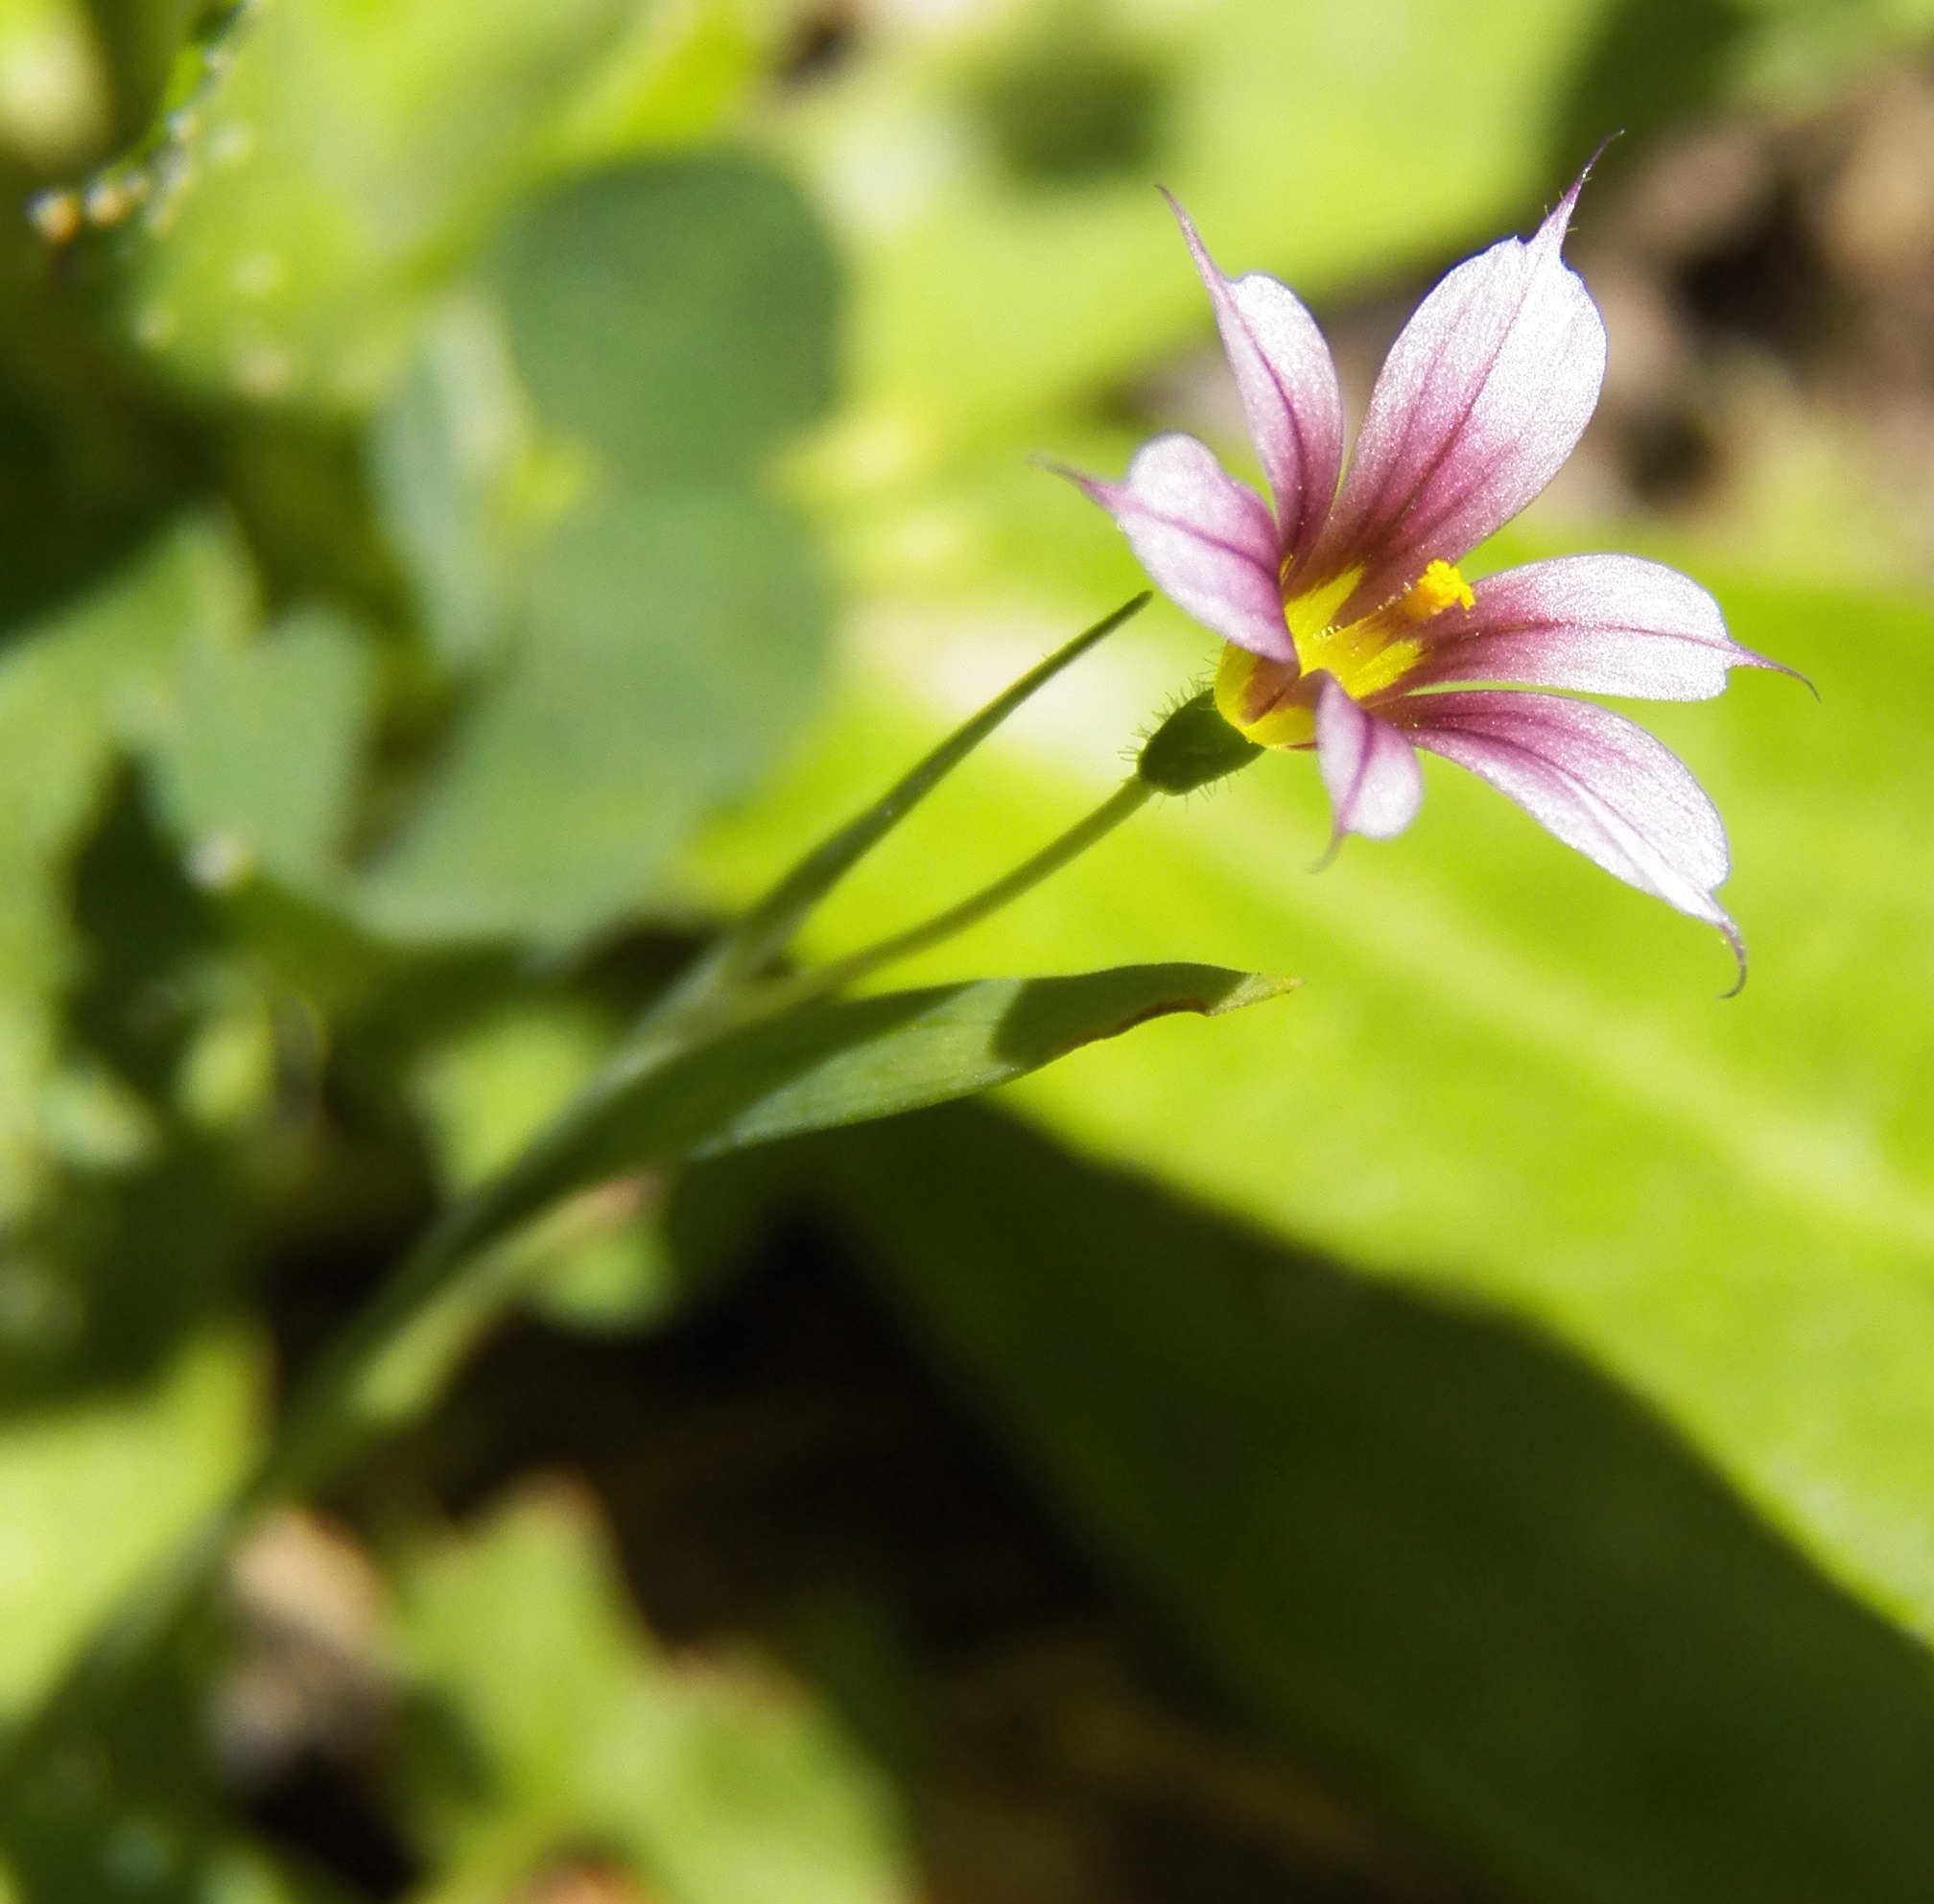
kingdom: Plantae
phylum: Tracheophyta
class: Liliopsida
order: Asparagales
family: Iridaceae
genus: Sisyrinchium
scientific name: Sisyrinchium minus
